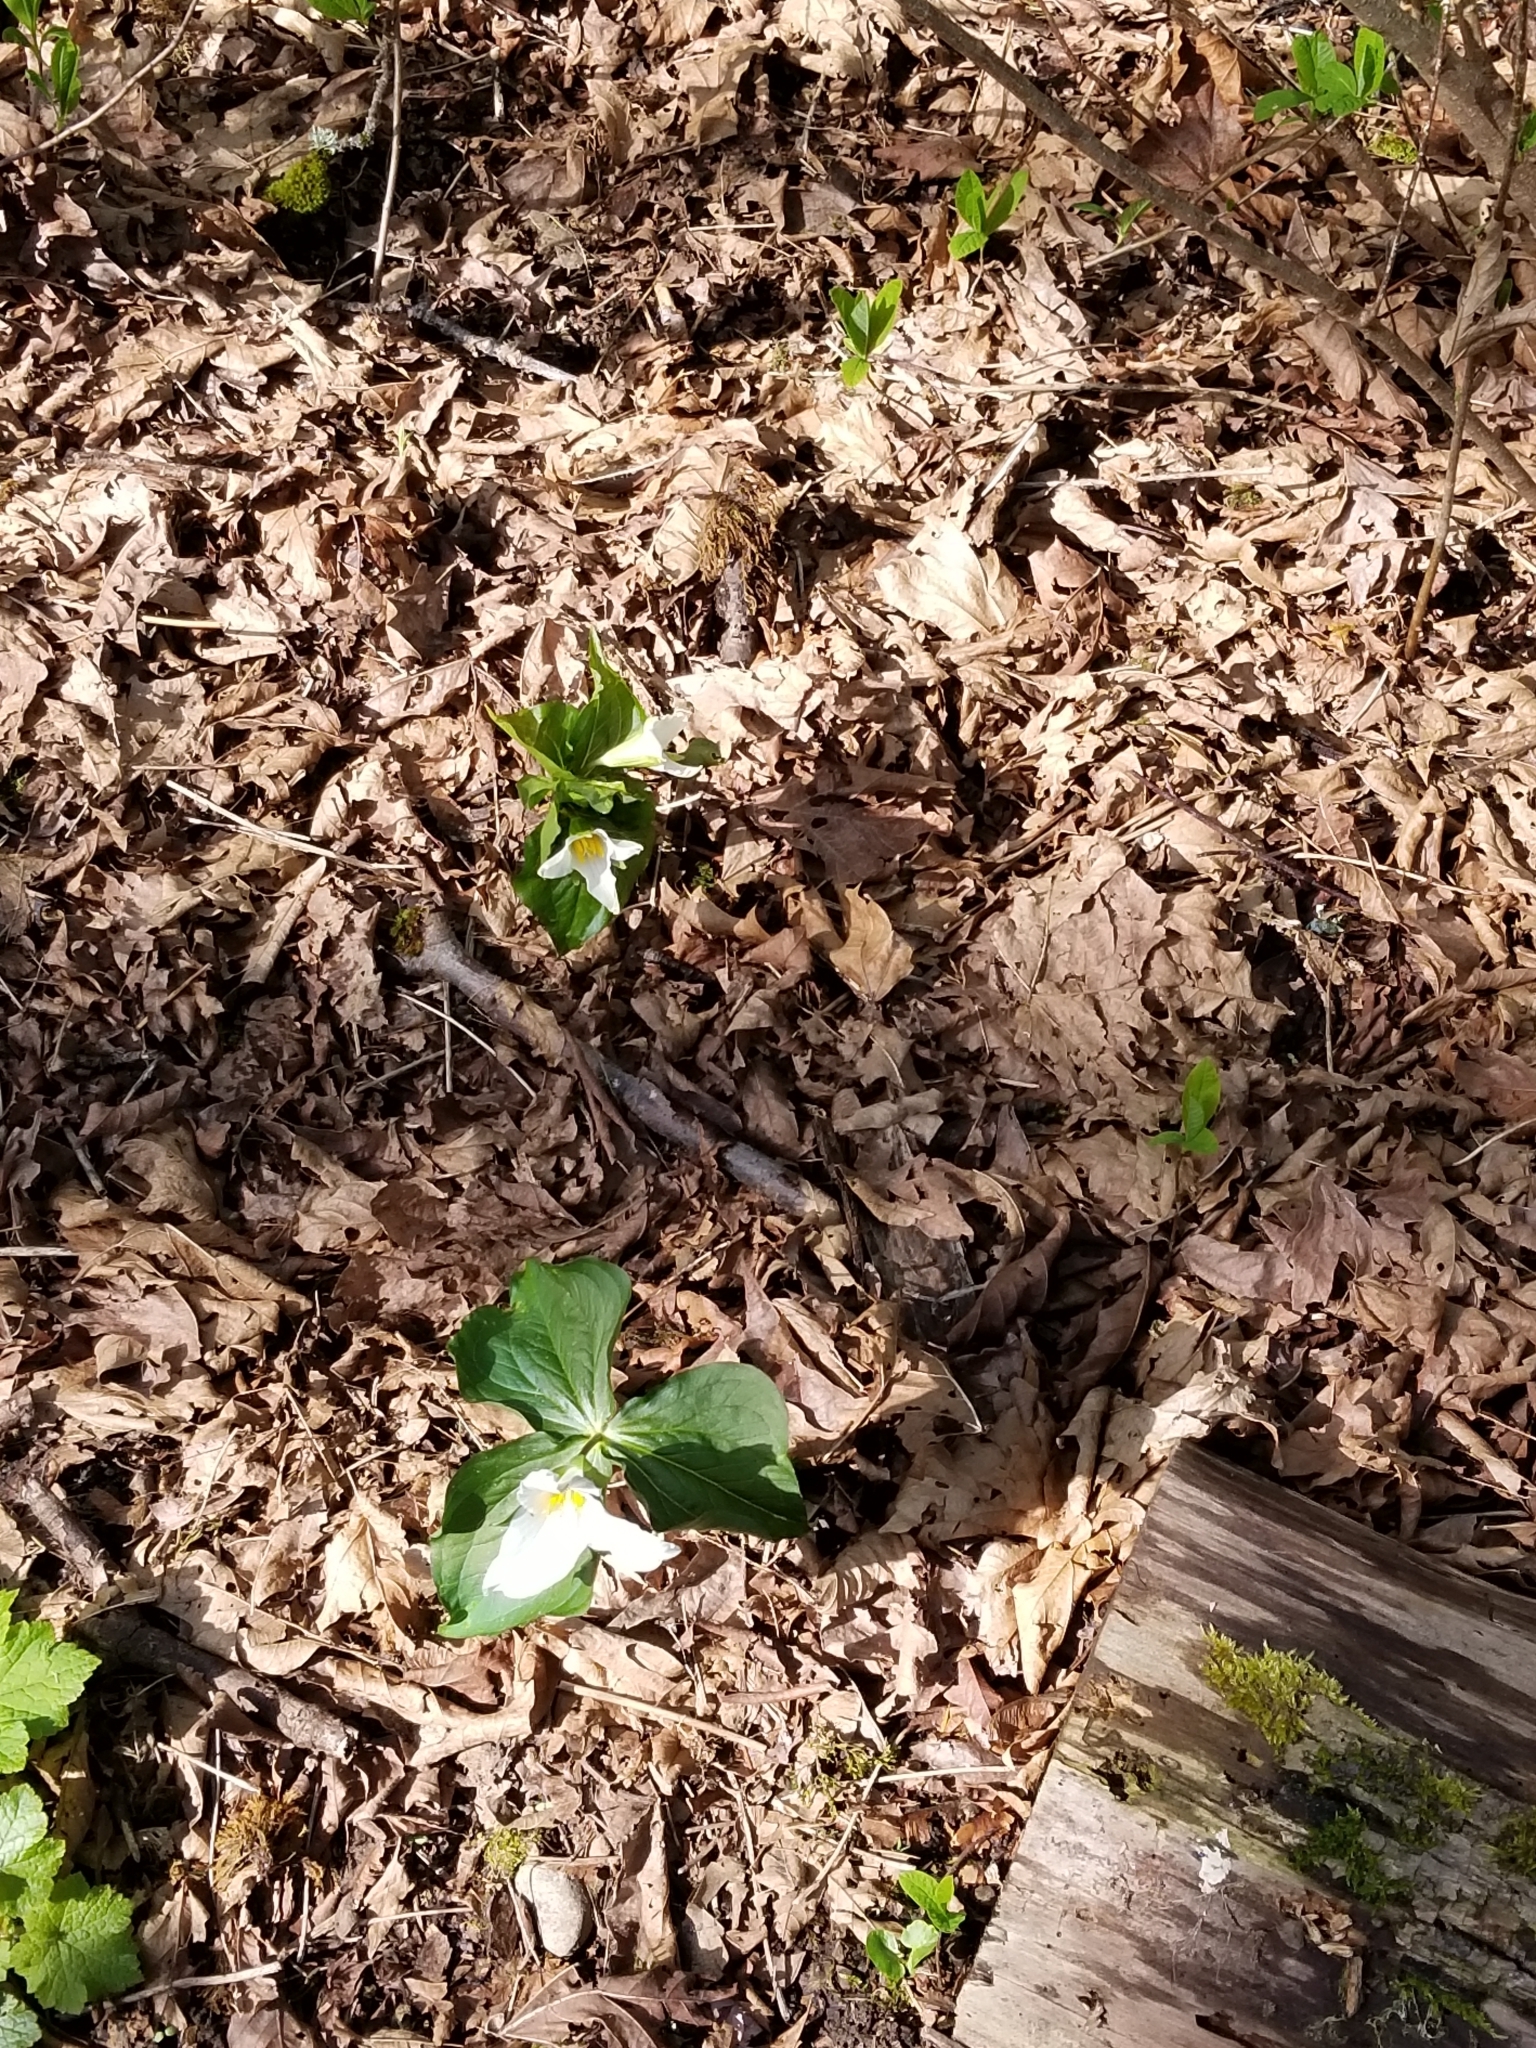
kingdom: Plantae
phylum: Tracheophyta
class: Liliopsida
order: Liliales
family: Melanthiaceae
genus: Trillium
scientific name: Trillium ovatum
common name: Pacific trillium
